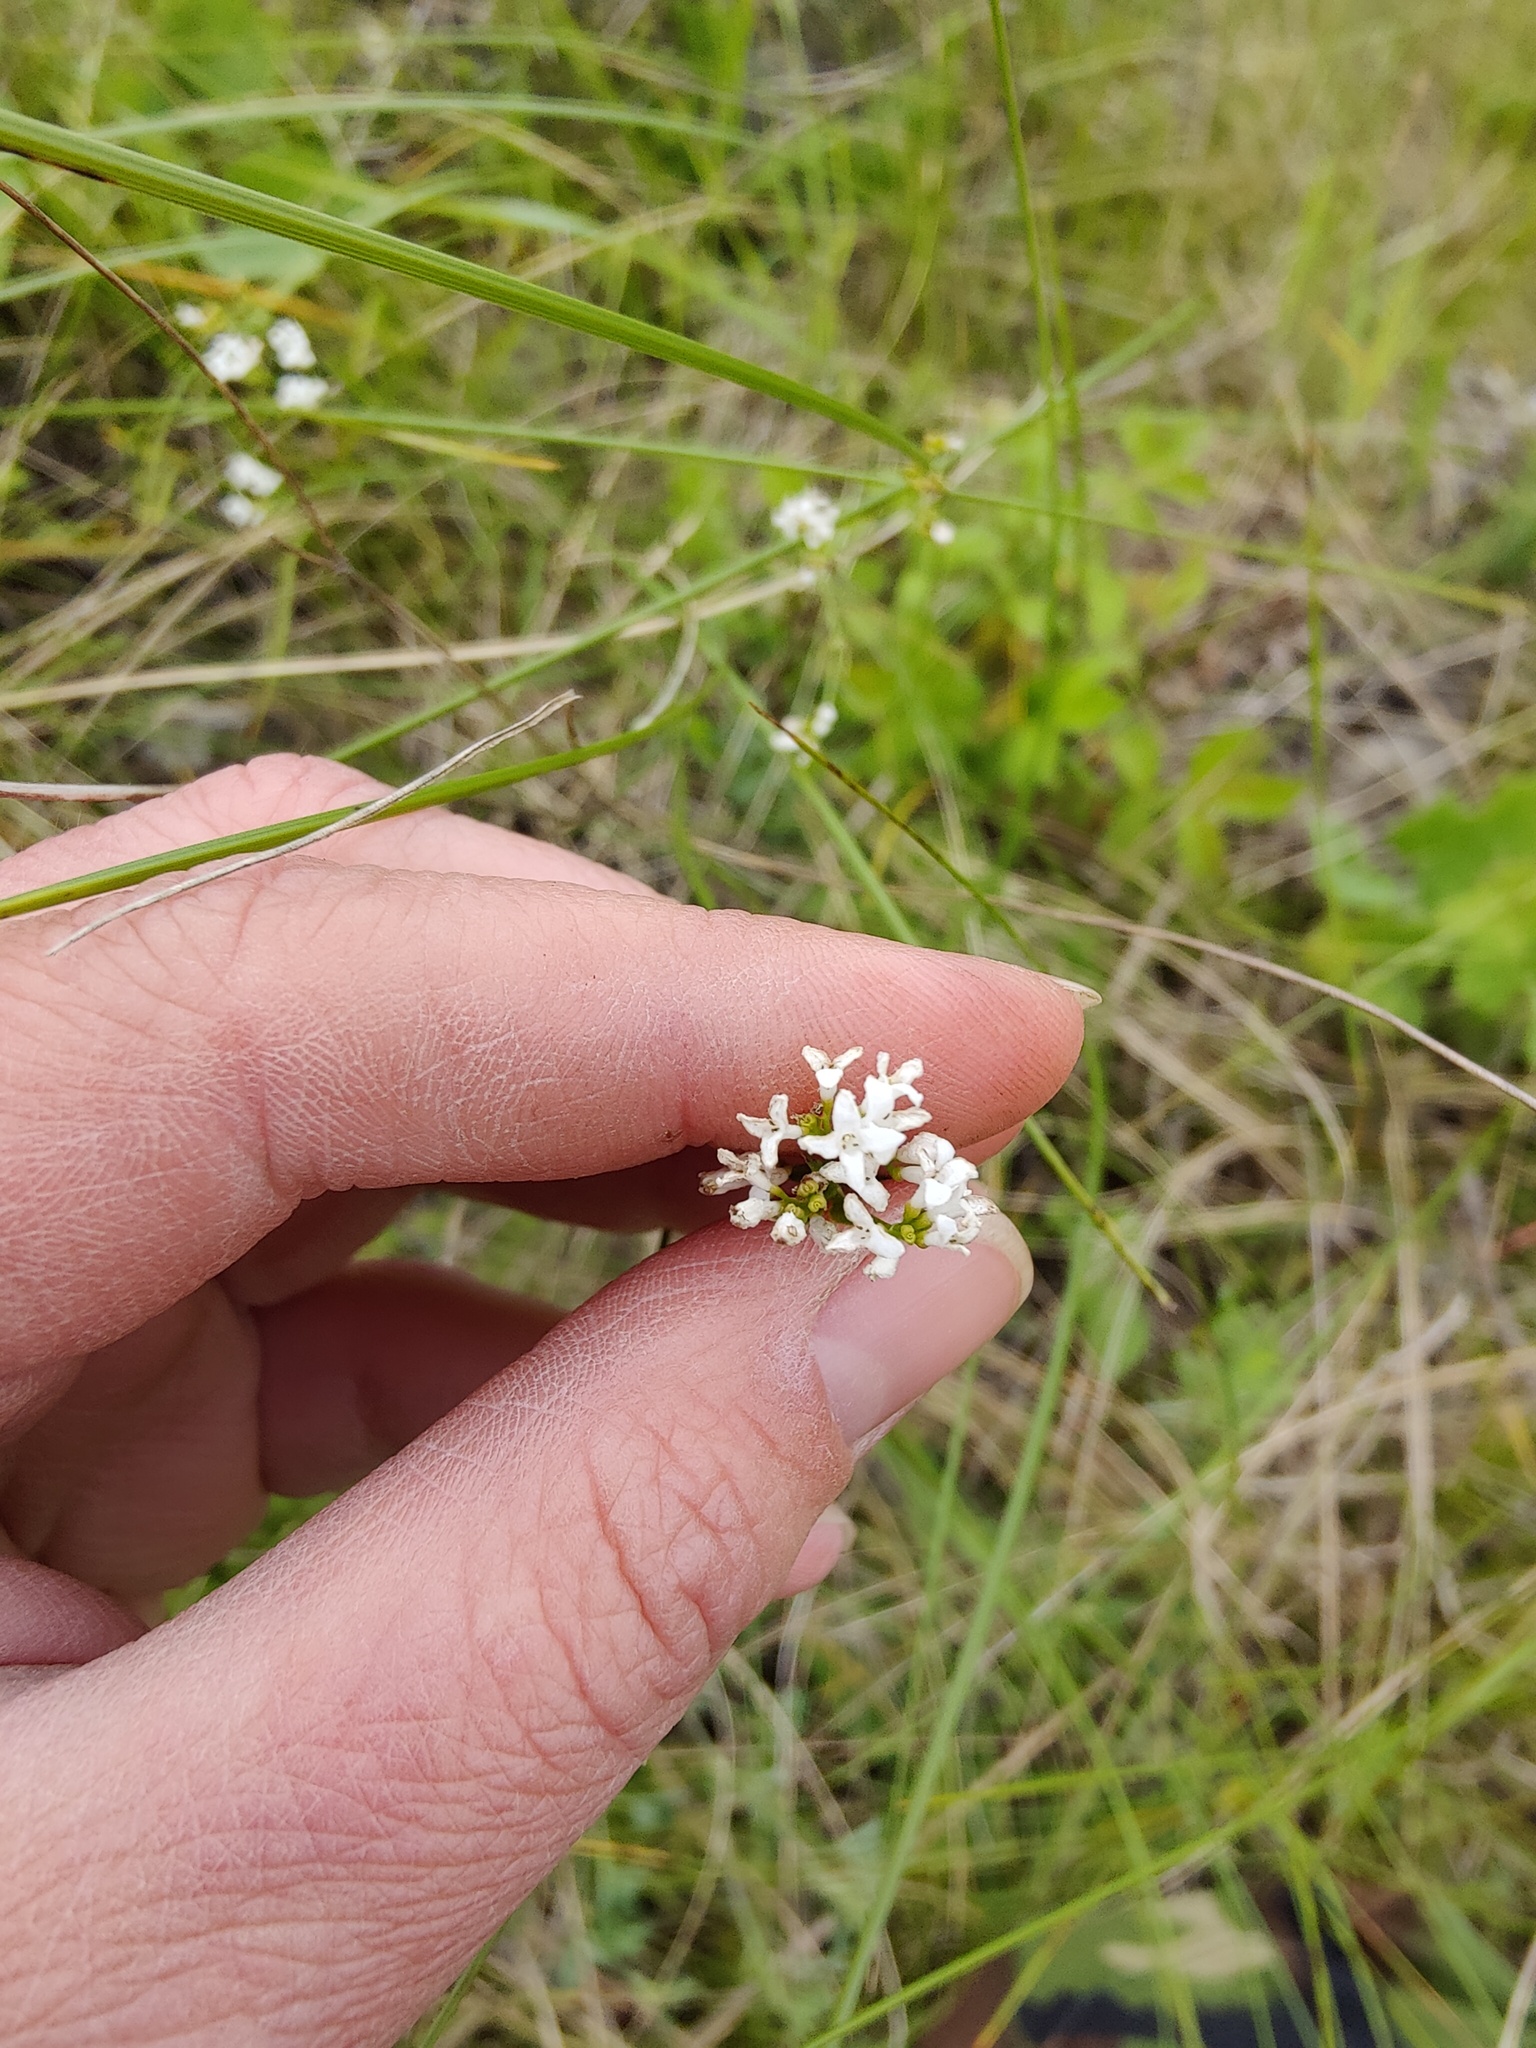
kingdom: Plantae
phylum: Tracheophyta
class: Magnoliopsida
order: Gentianales
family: Rubiaceae
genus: Asperula
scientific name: Asperula tinctoria
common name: Dyer's woodruff
